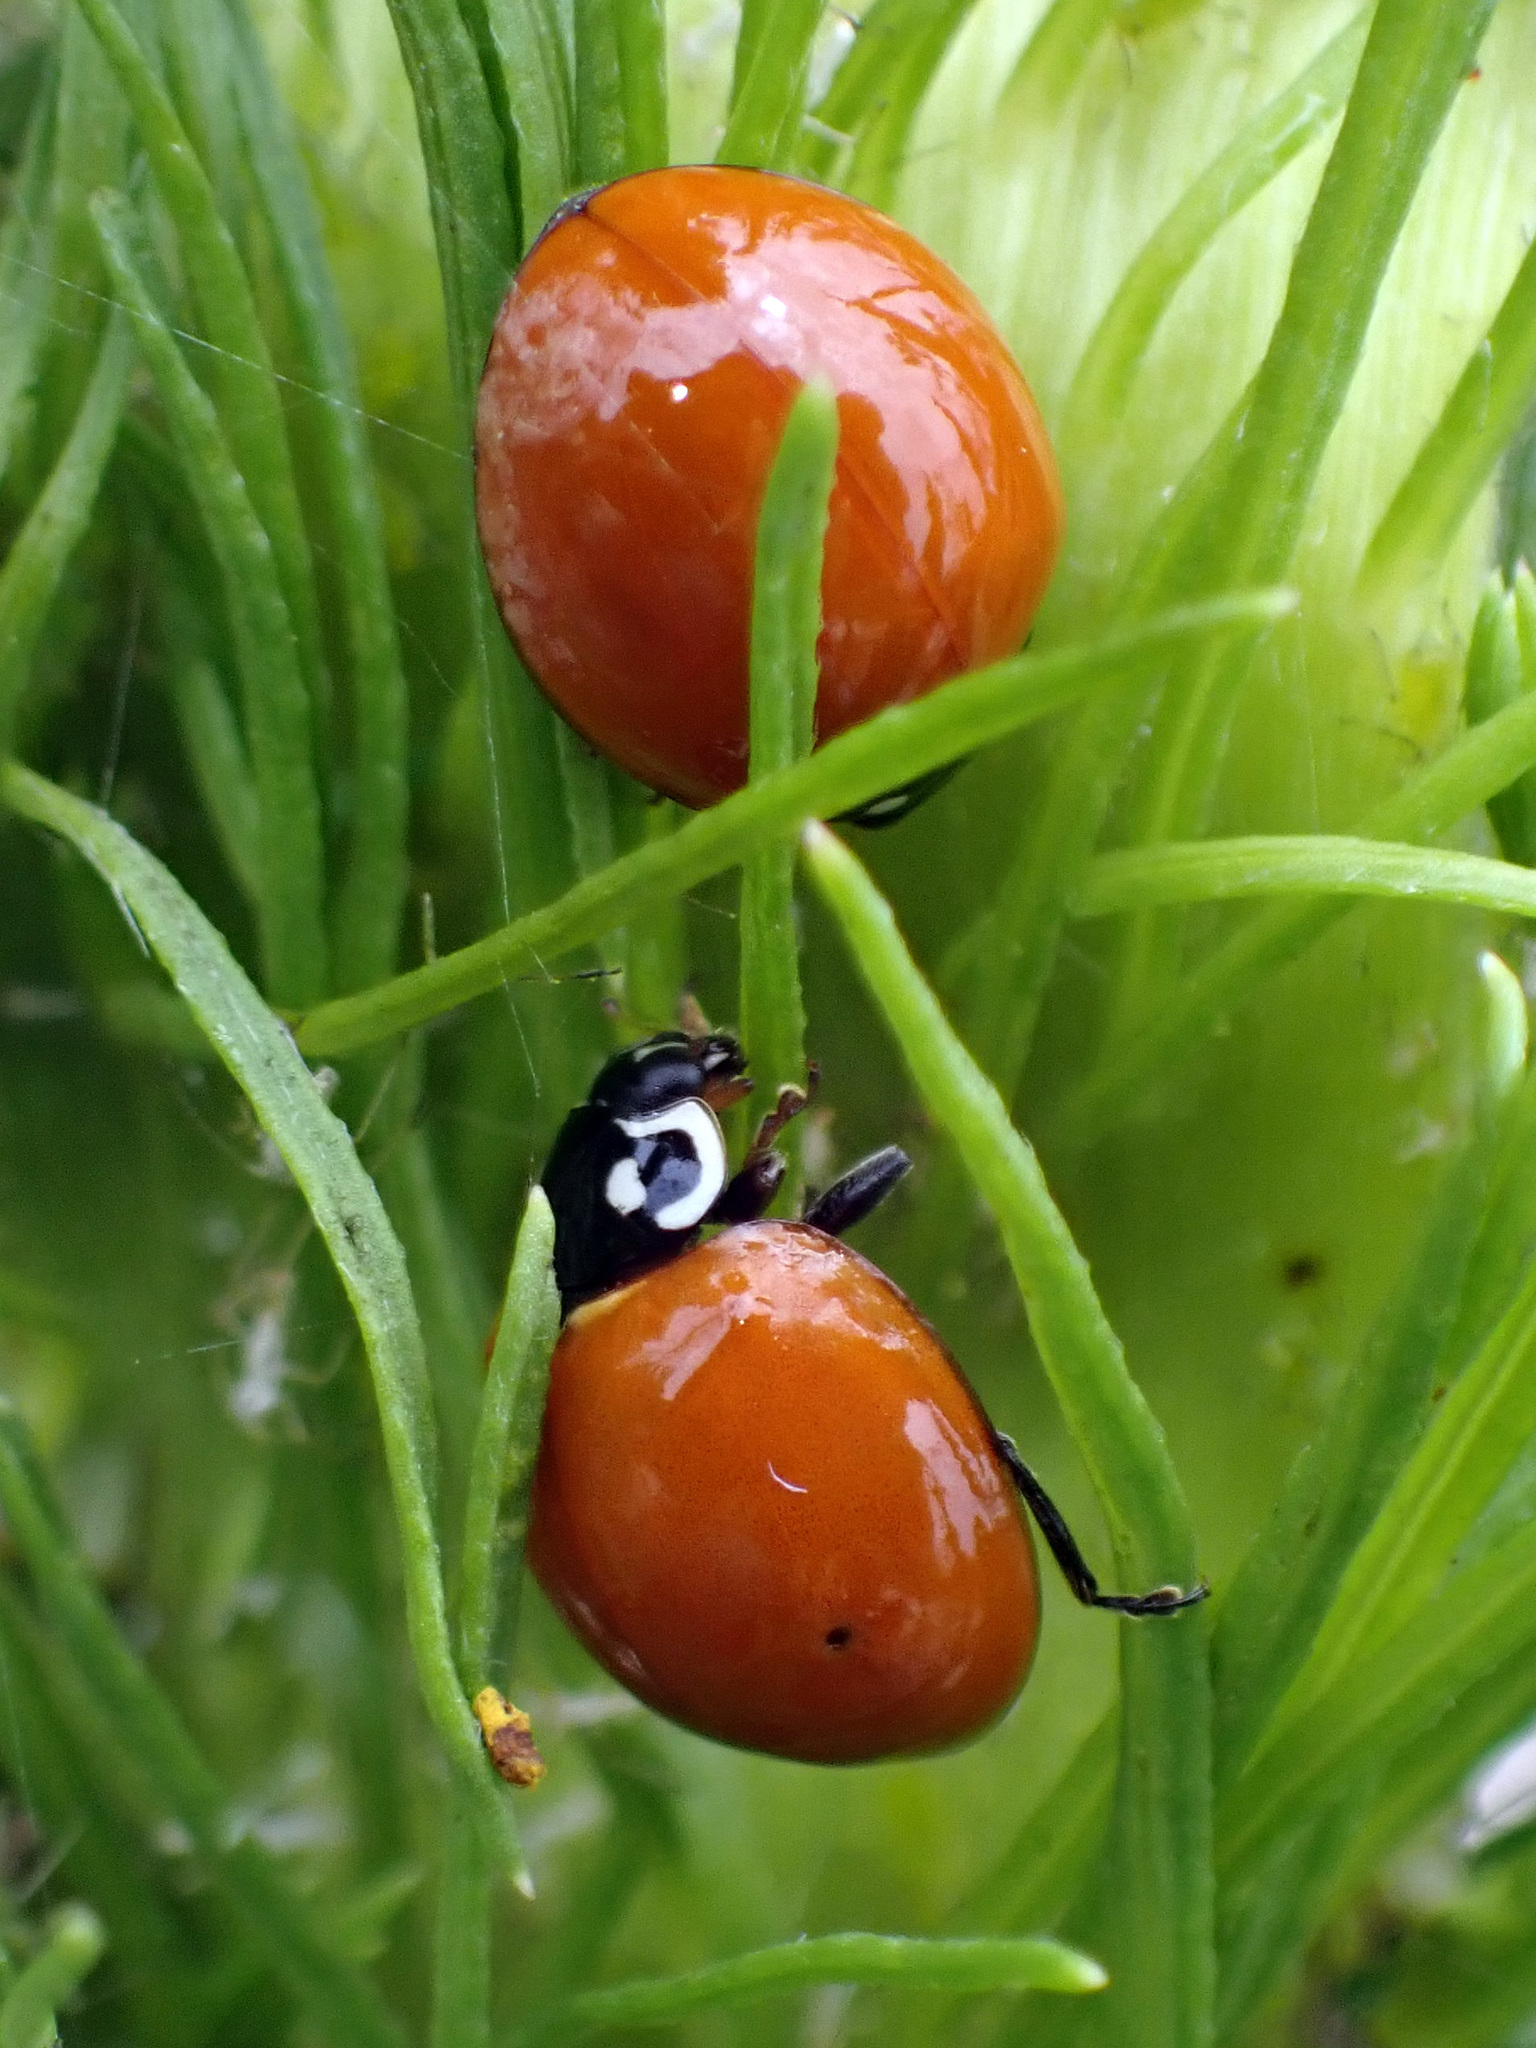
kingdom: Animalia
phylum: Arthropoda
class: Insecta
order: Coleoptera
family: Coccinellidae
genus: Cycloneda
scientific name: Cycloneda sanguinea
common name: Ladybird beetle
